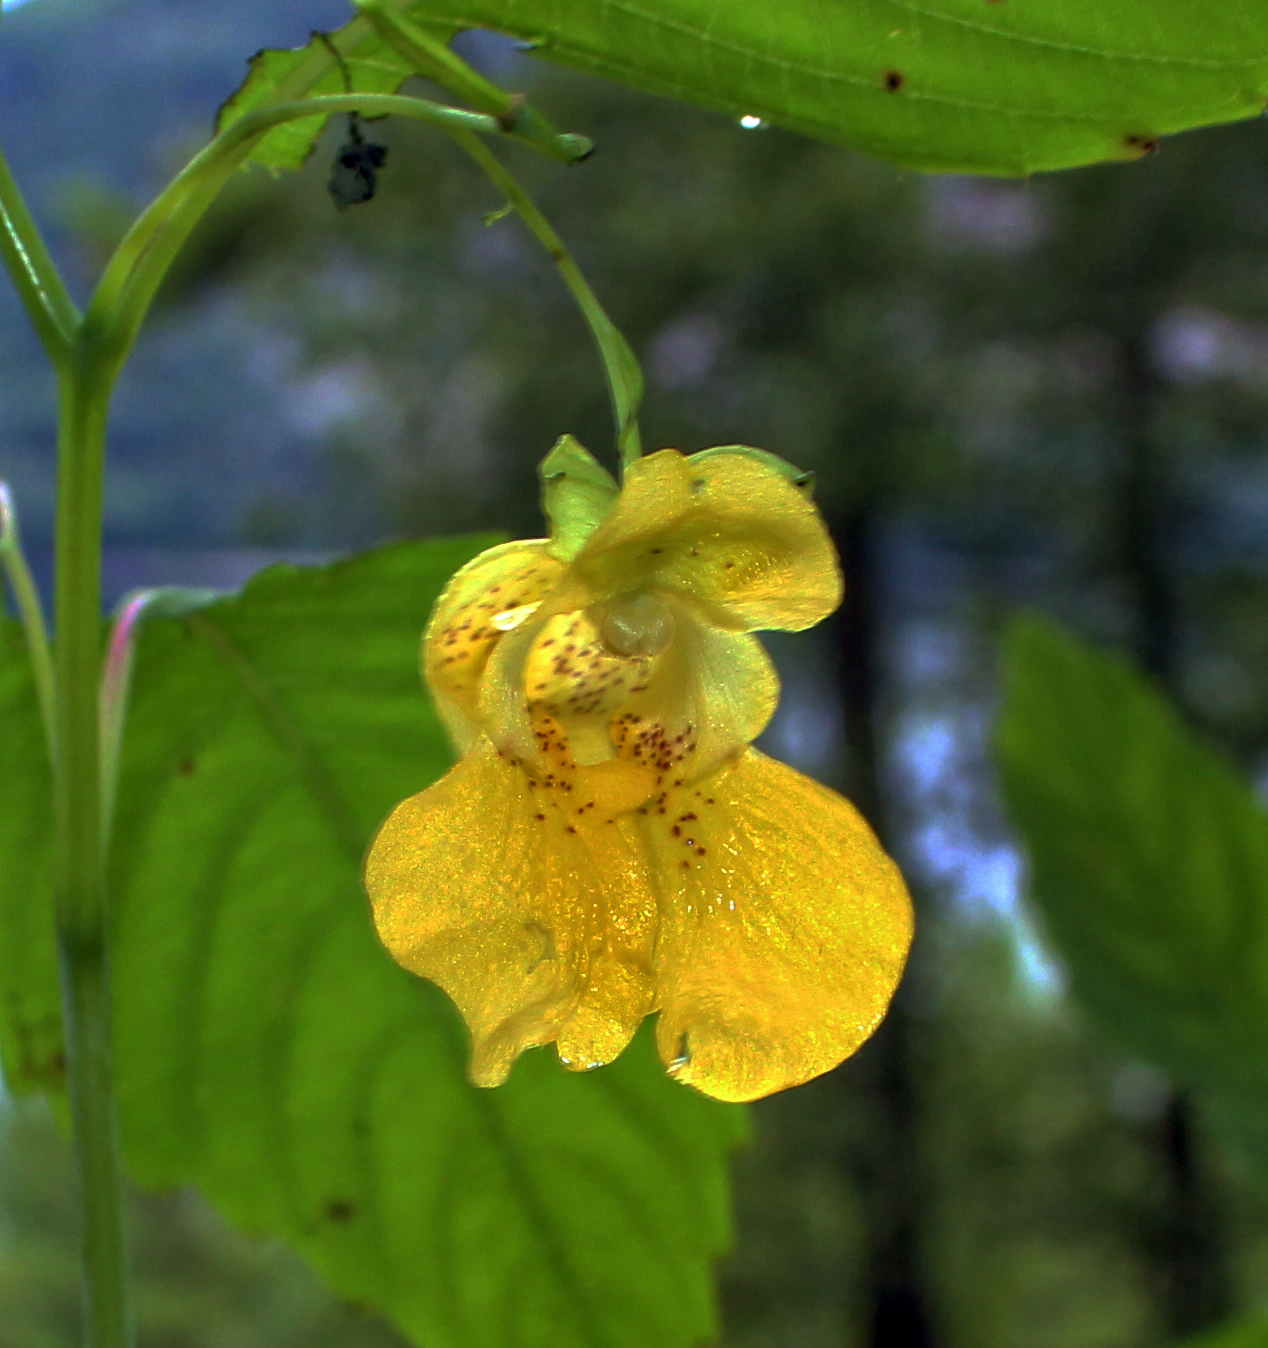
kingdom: Plantae
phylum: Tracheophyta
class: Magnoliopsida
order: Ericales
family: Balsaminaceae
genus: Impatiens
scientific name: Impatiens pallida
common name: Pale snapweed
